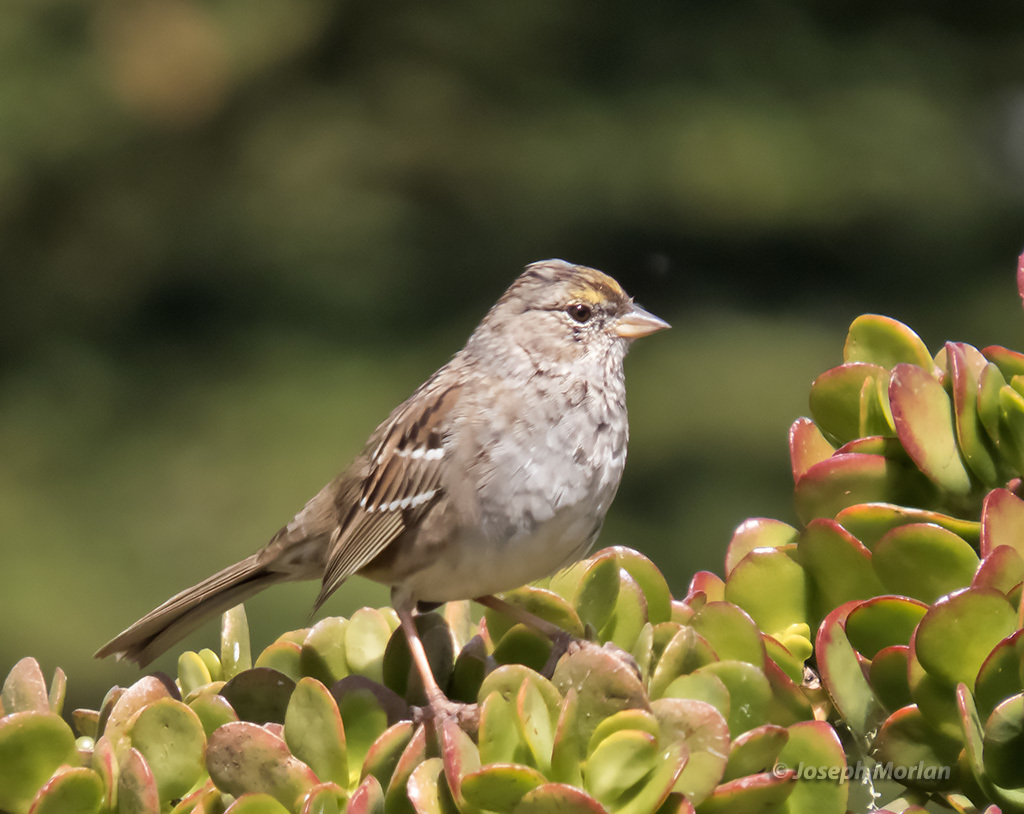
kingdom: Animalia
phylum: Chordata
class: Aves
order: Passeriformes
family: Passerellidae
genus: Zonotrichia
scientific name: Zonotrichia atricapilla
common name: Golden-crowned sparrow
